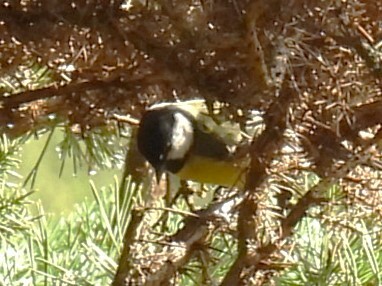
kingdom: Animalia
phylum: Chordata
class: Aves
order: Passeriformes
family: Paridae
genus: Parus
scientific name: Parus major
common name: Great tit
